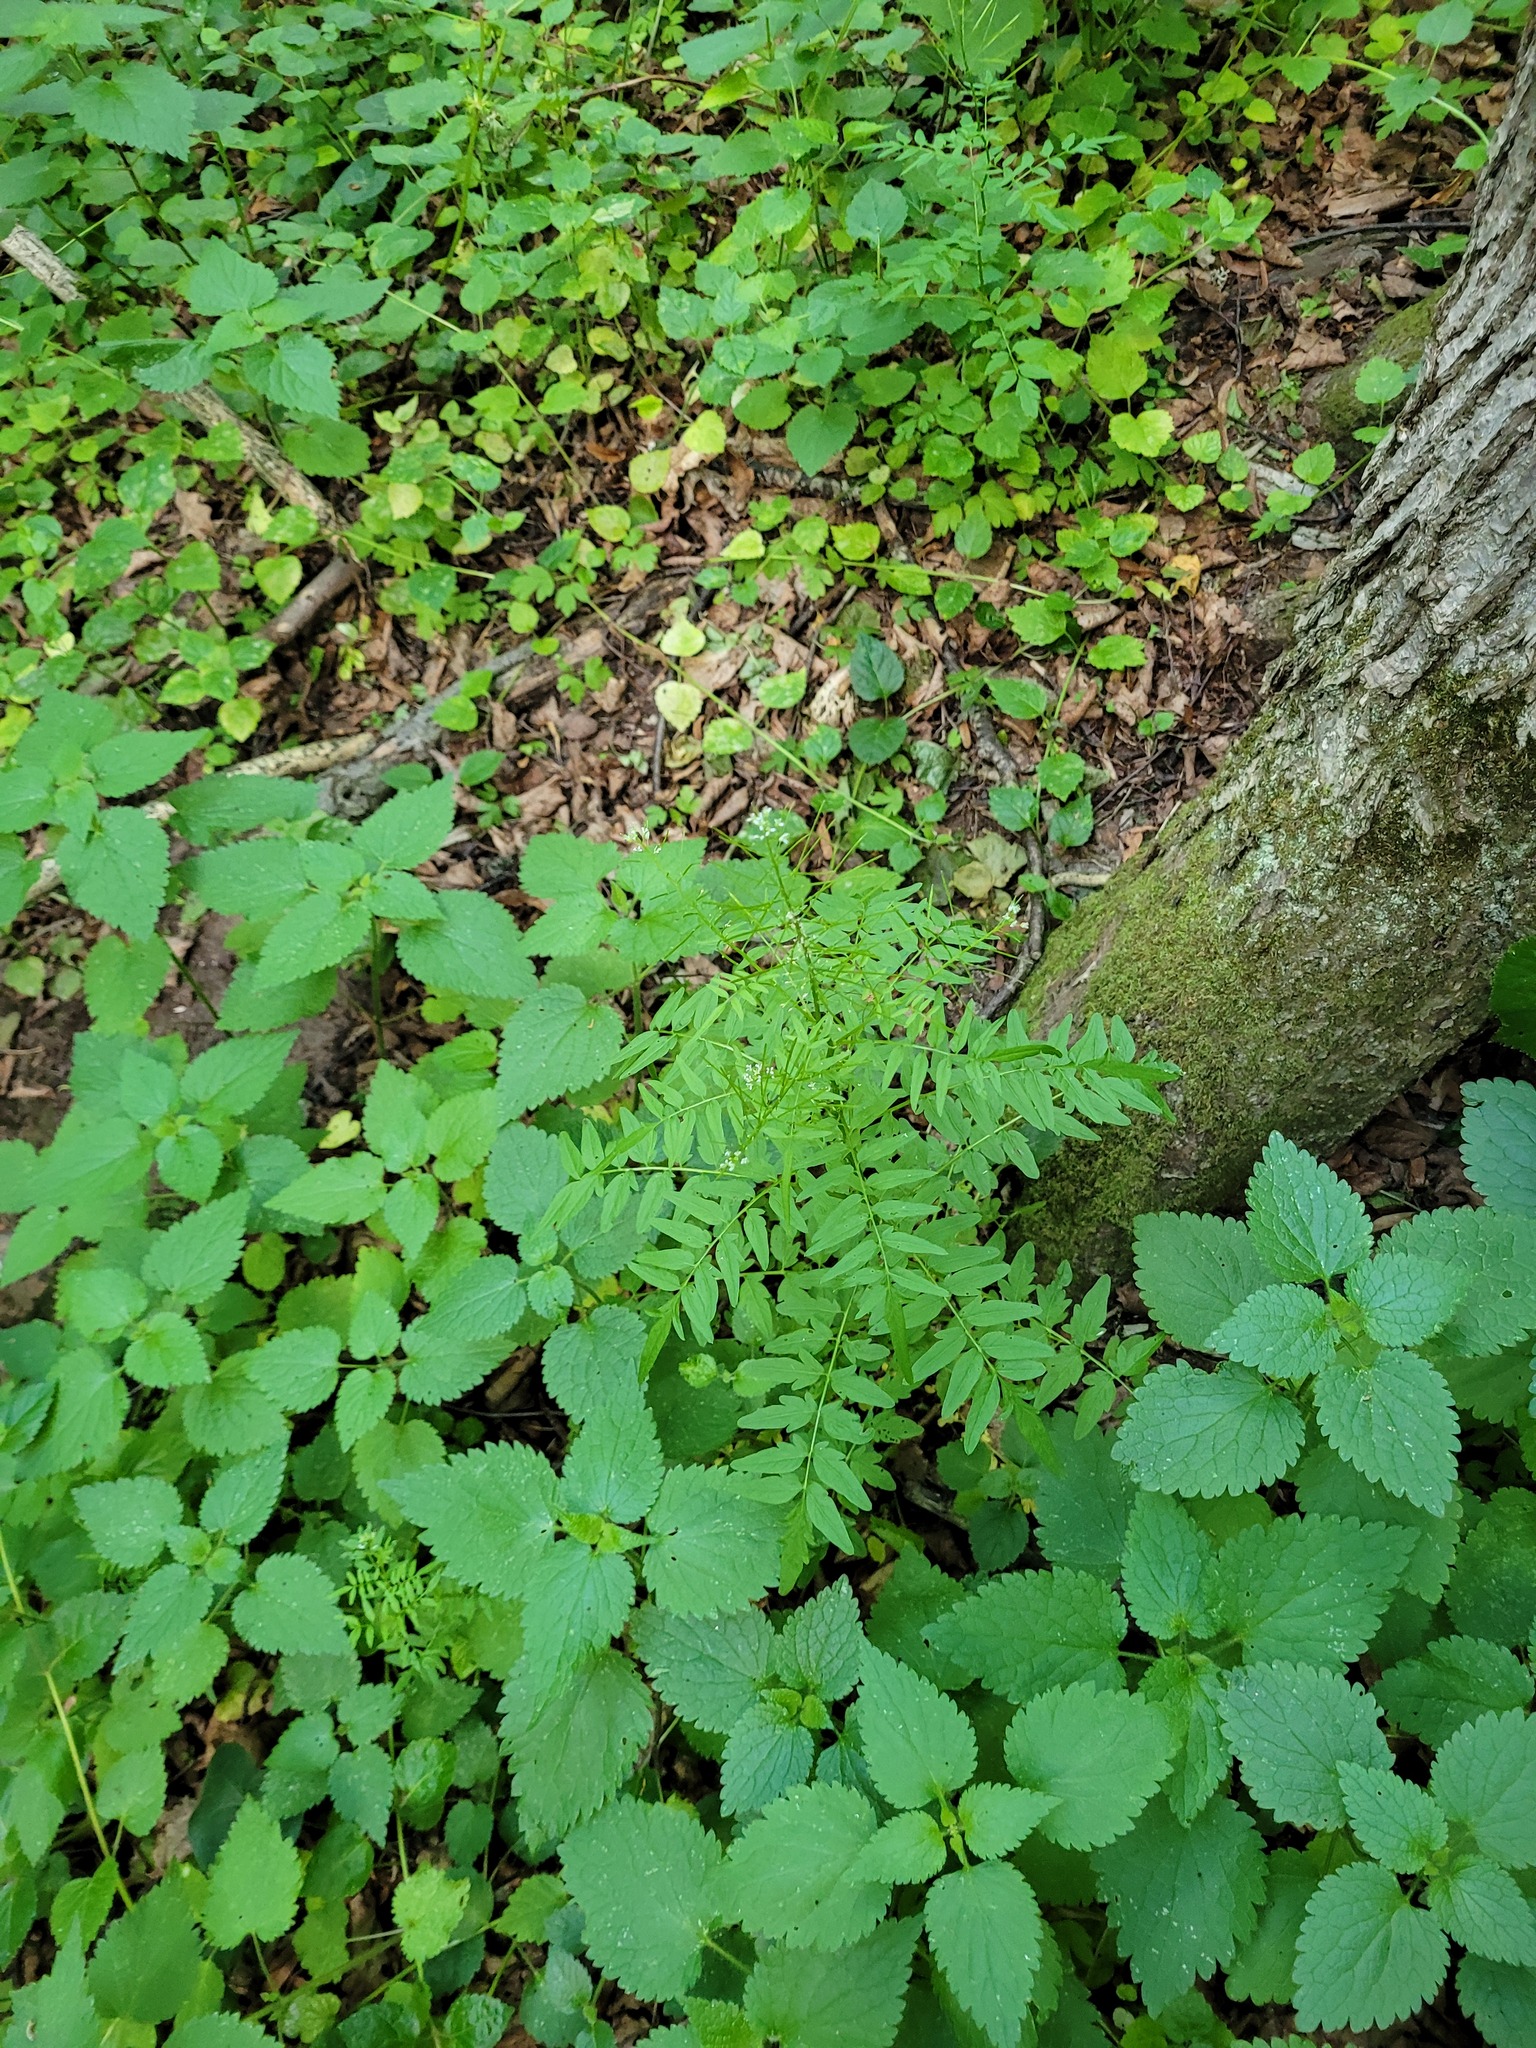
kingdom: Plantae
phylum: Tracheophyta
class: Magnoliopsida
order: Brassicales
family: Brassicaceae
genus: Cardamine
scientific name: Cardamine impatiens
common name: Narrow-leaved bitter-cress
